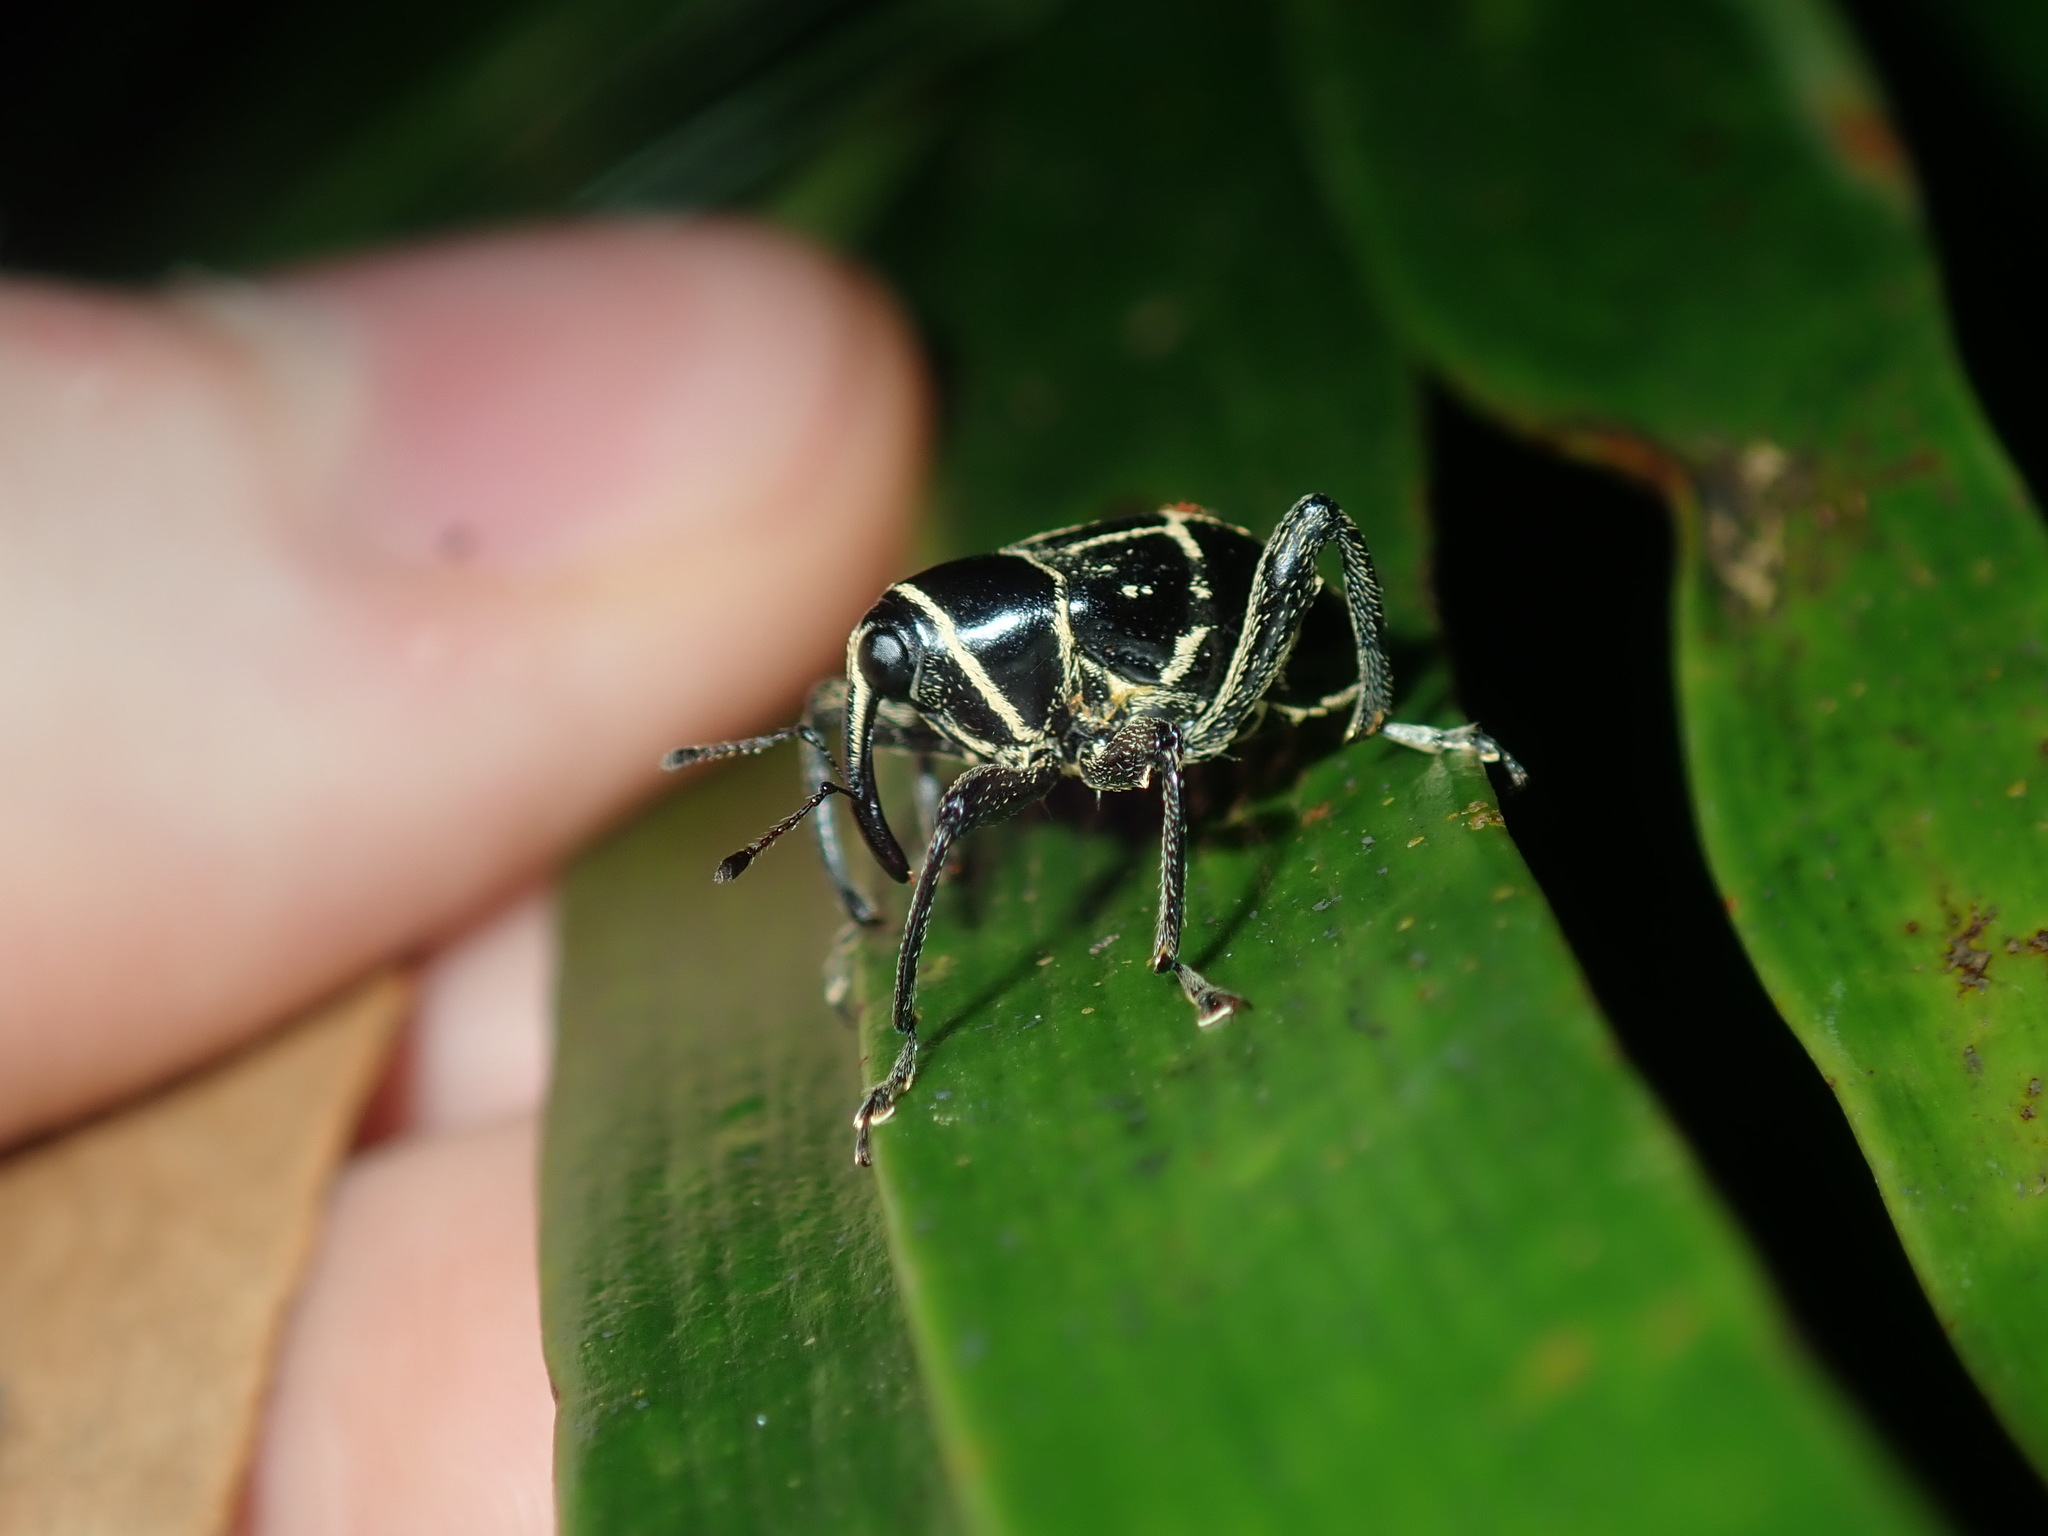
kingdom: Animalia
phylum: Arthropoda
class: Insecta
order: Coleoptera
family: Curculionidae
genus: Enteles
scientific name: Enteles vigorsii
